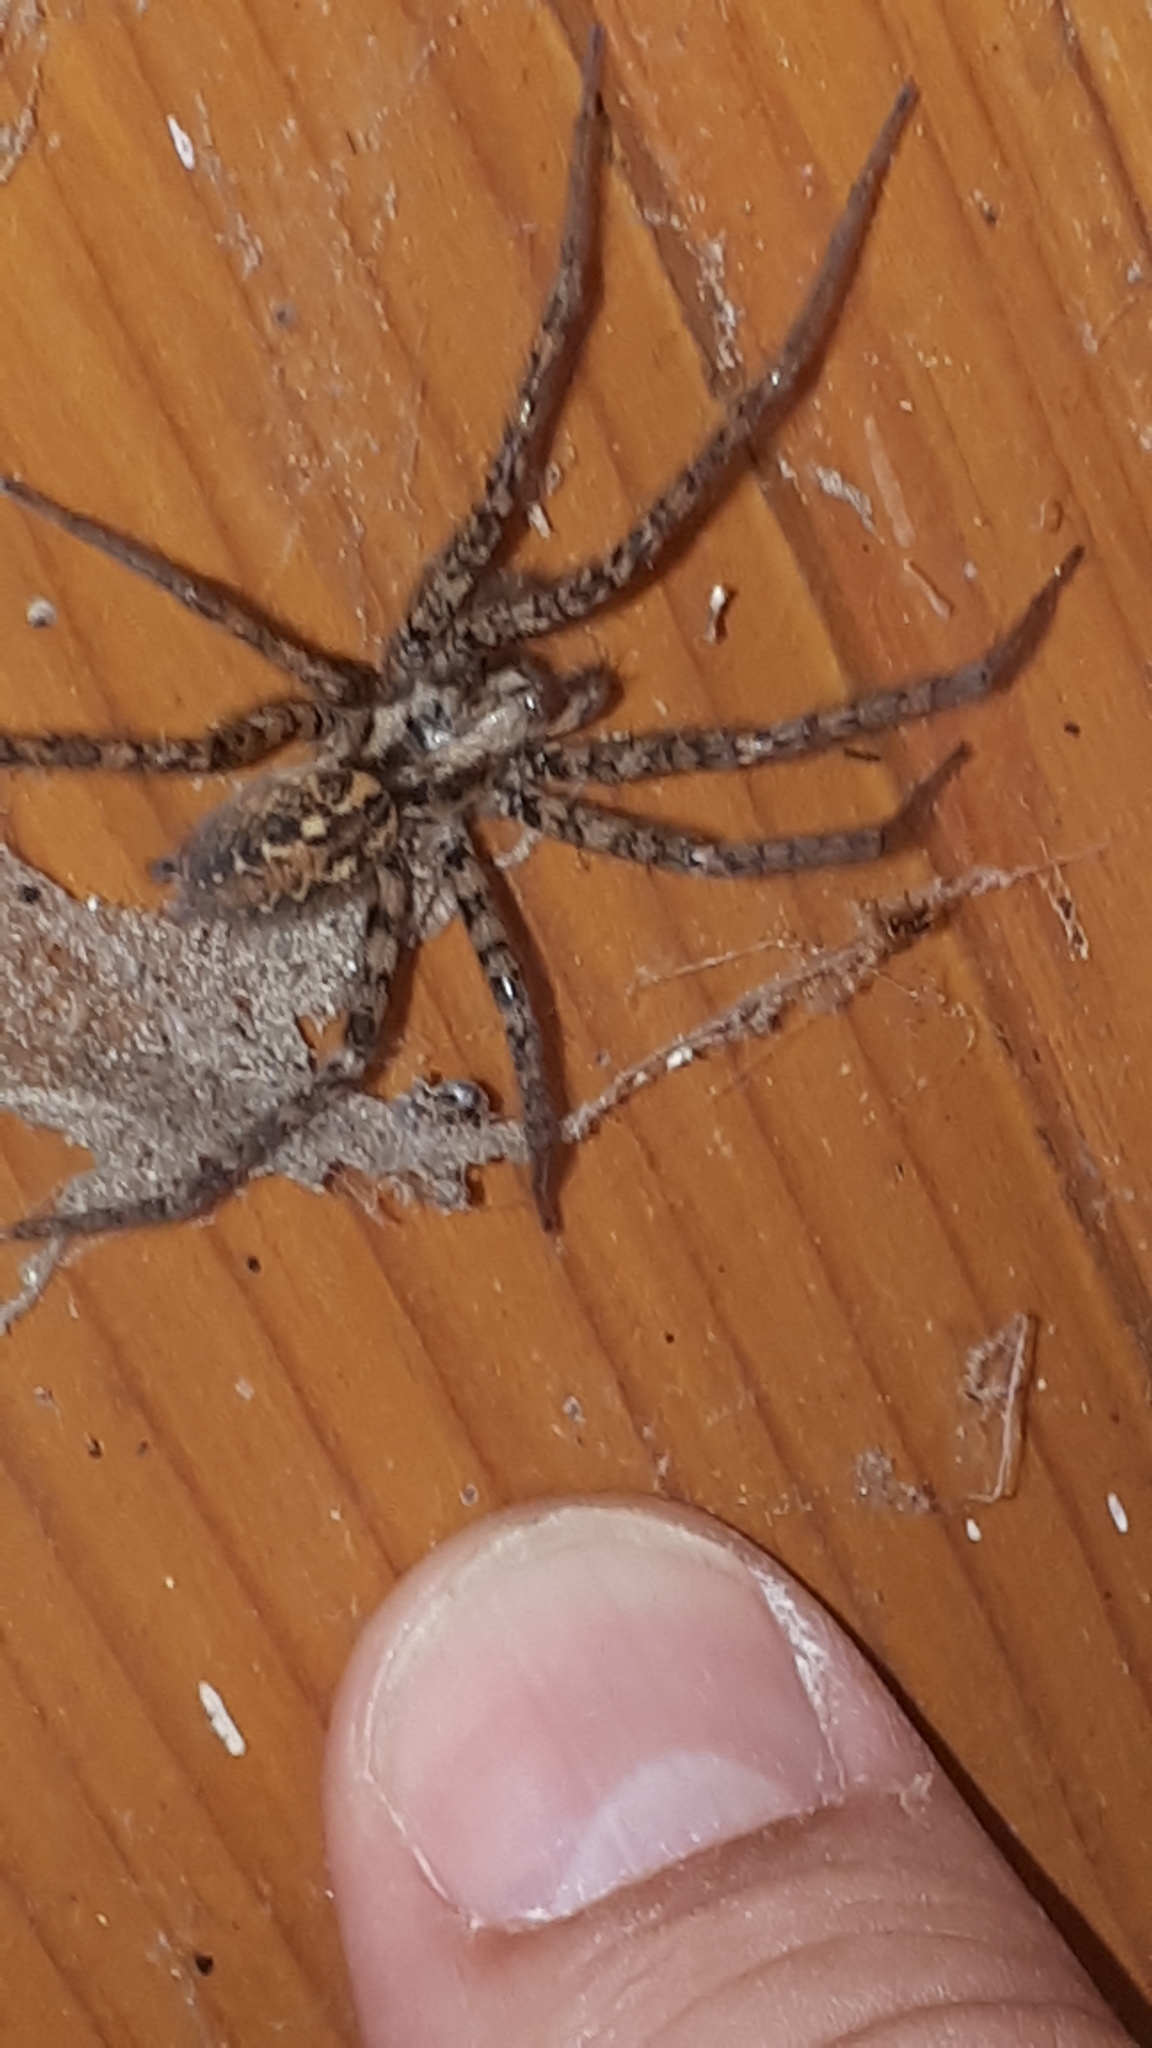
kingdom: Animalia
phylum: Arthropoda
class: Arachnida
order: Araneae
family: Agelenidae
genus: Tegenaria
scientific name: Tegenaria ferruginea
